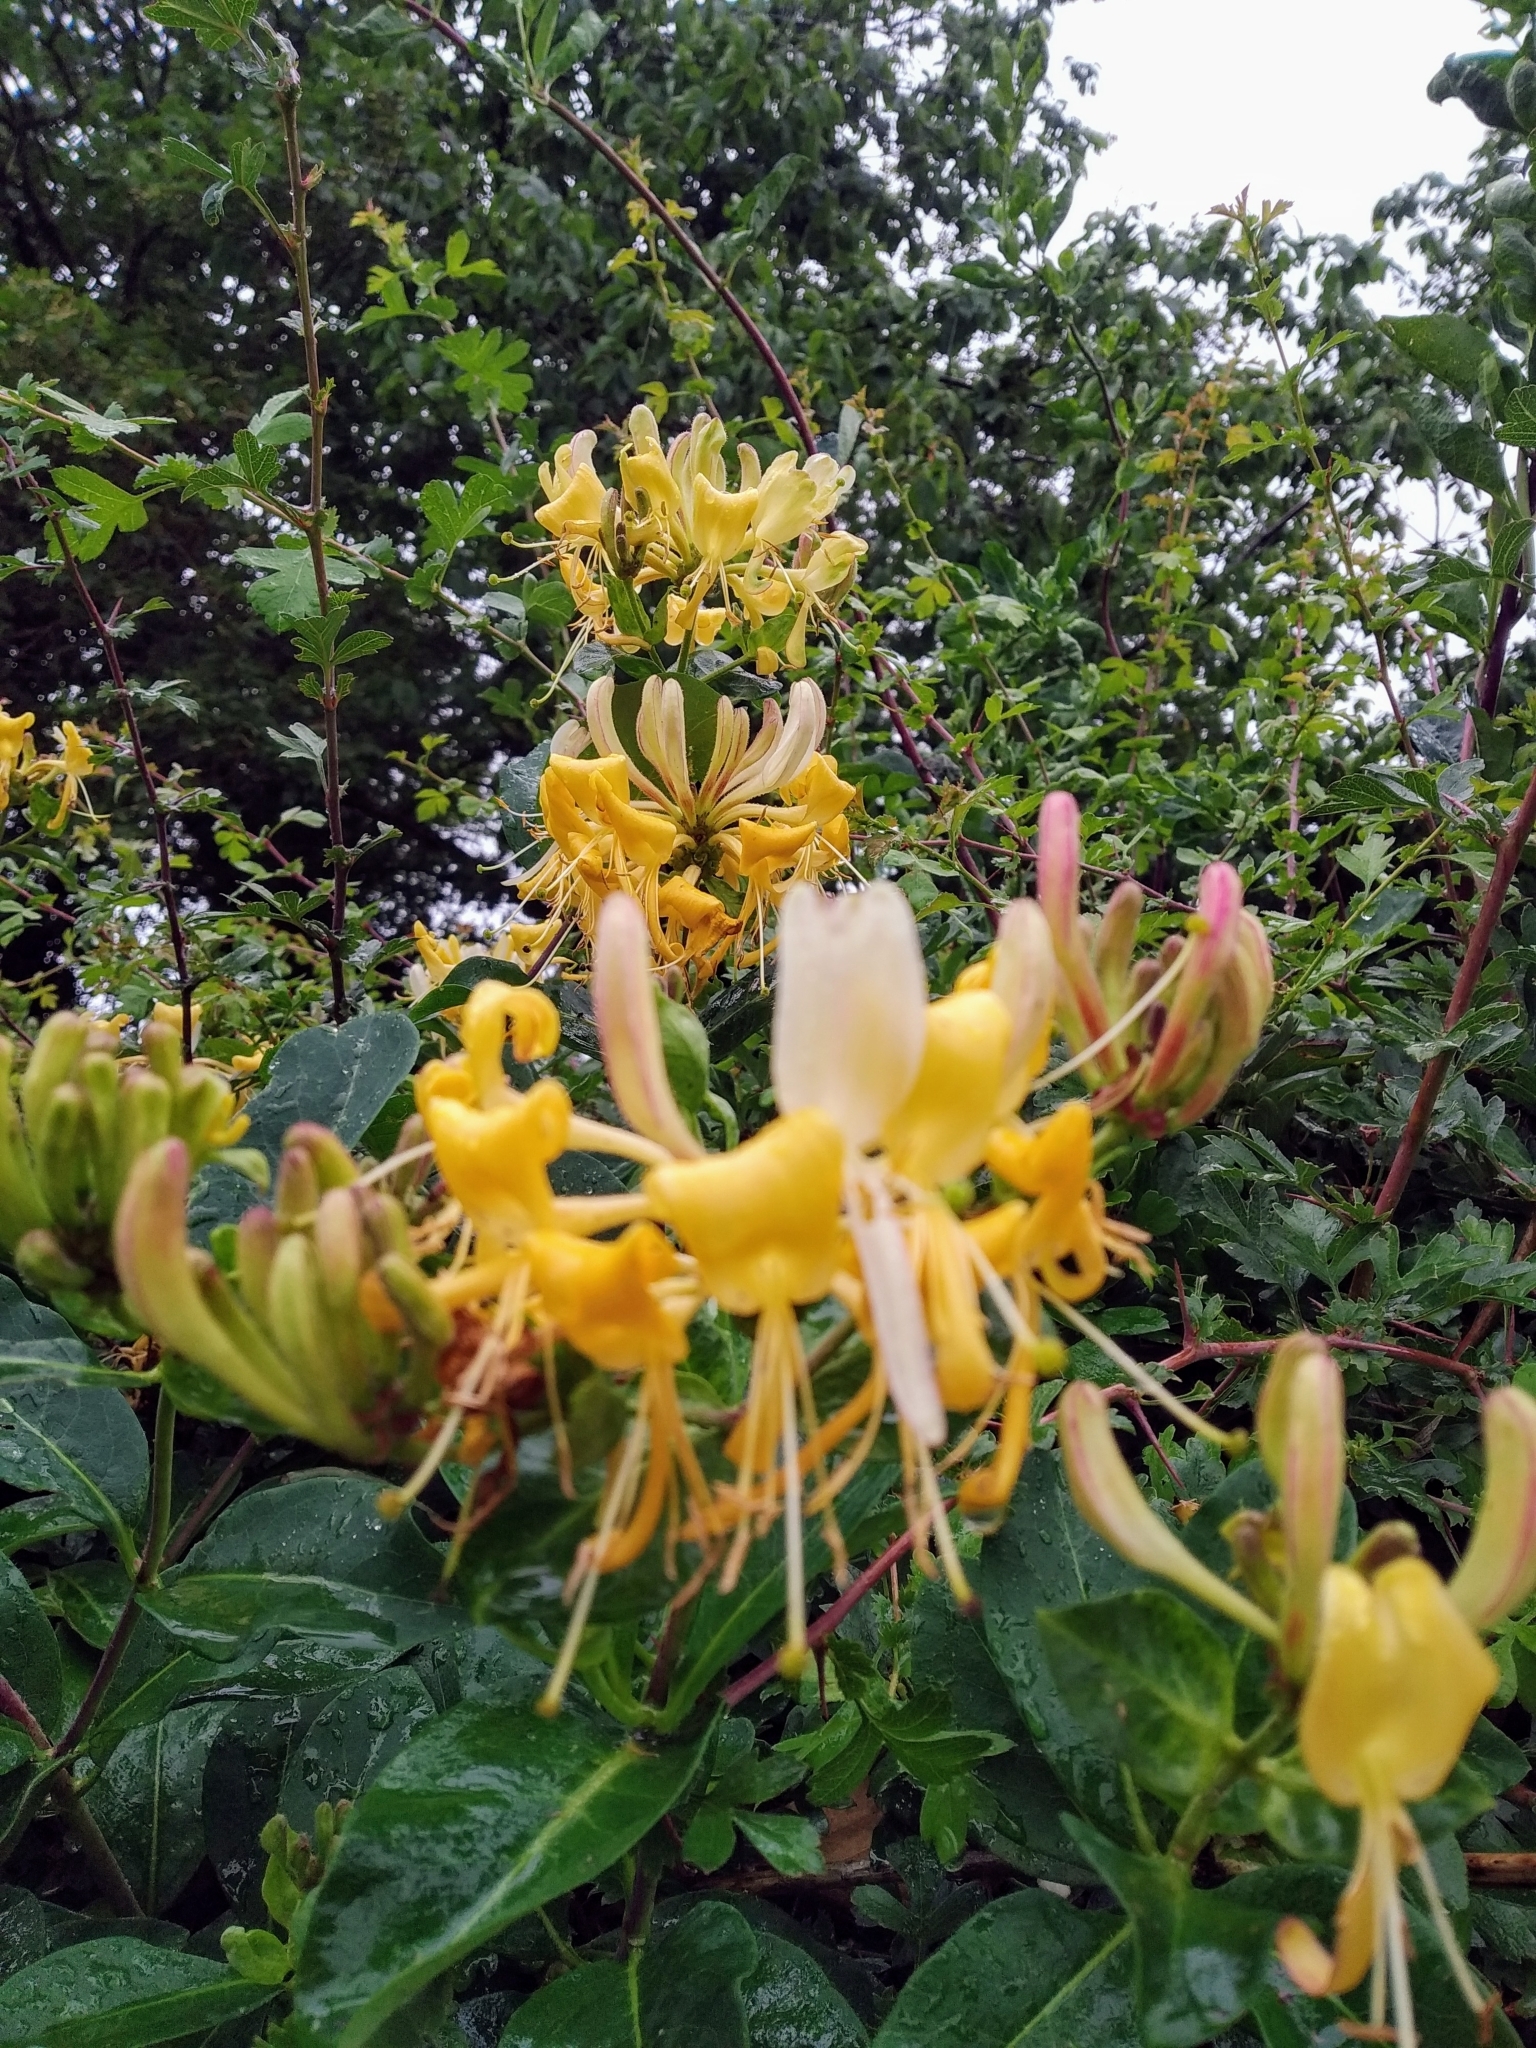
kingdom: Plantae
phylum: Tracheophyta
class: Magnoliopsida
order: Dipsacales
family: Caprifoliaceae
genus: Lonicera
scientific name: Lonicera periclymenum
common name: European honeysuckle
